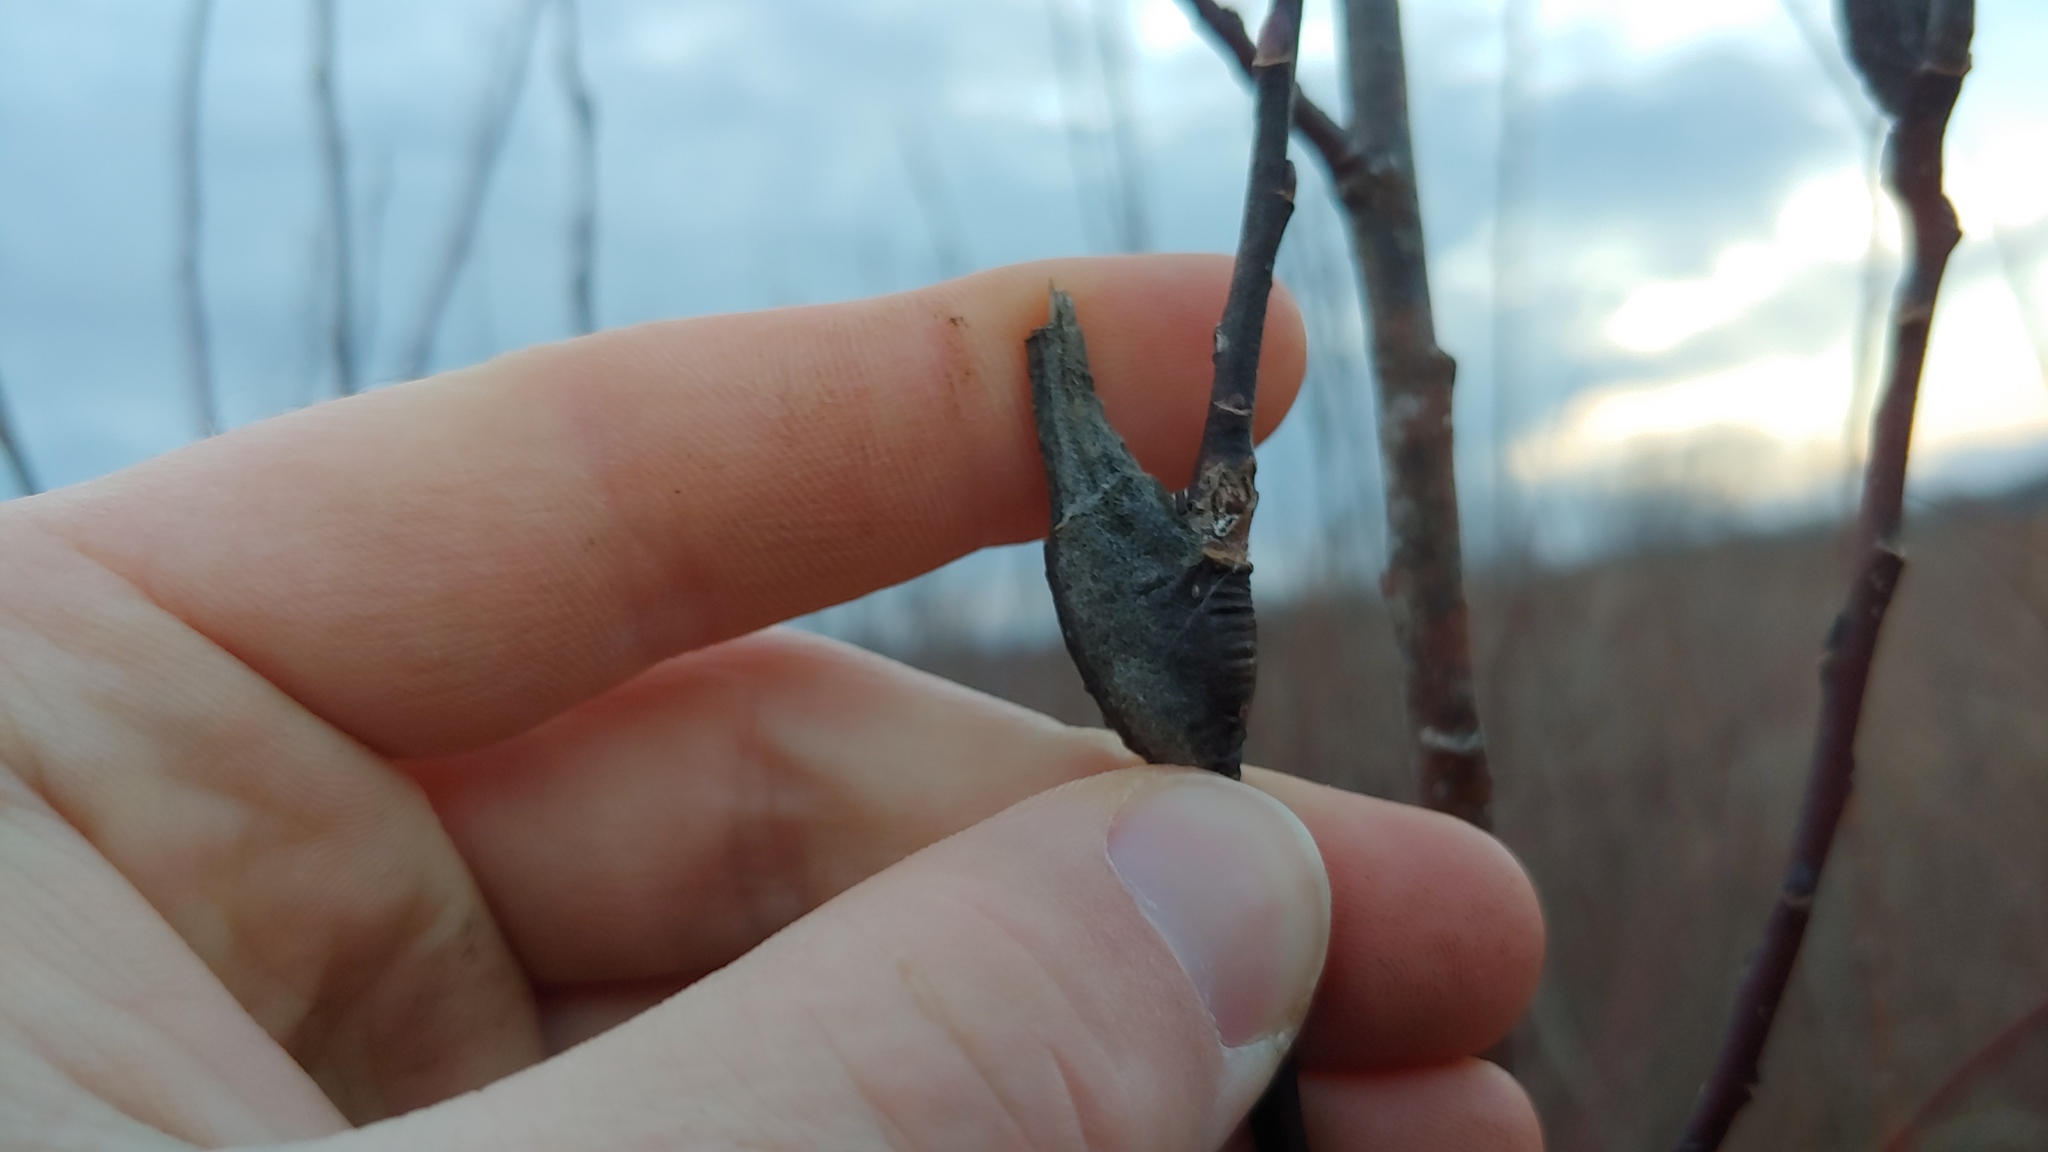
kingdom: Animalia
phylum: Arthropoda
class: Insecta
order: Diptera
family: Cecidomyiidae
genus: Thecodiplosis
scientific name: Thecodiplosis pinirigidae
